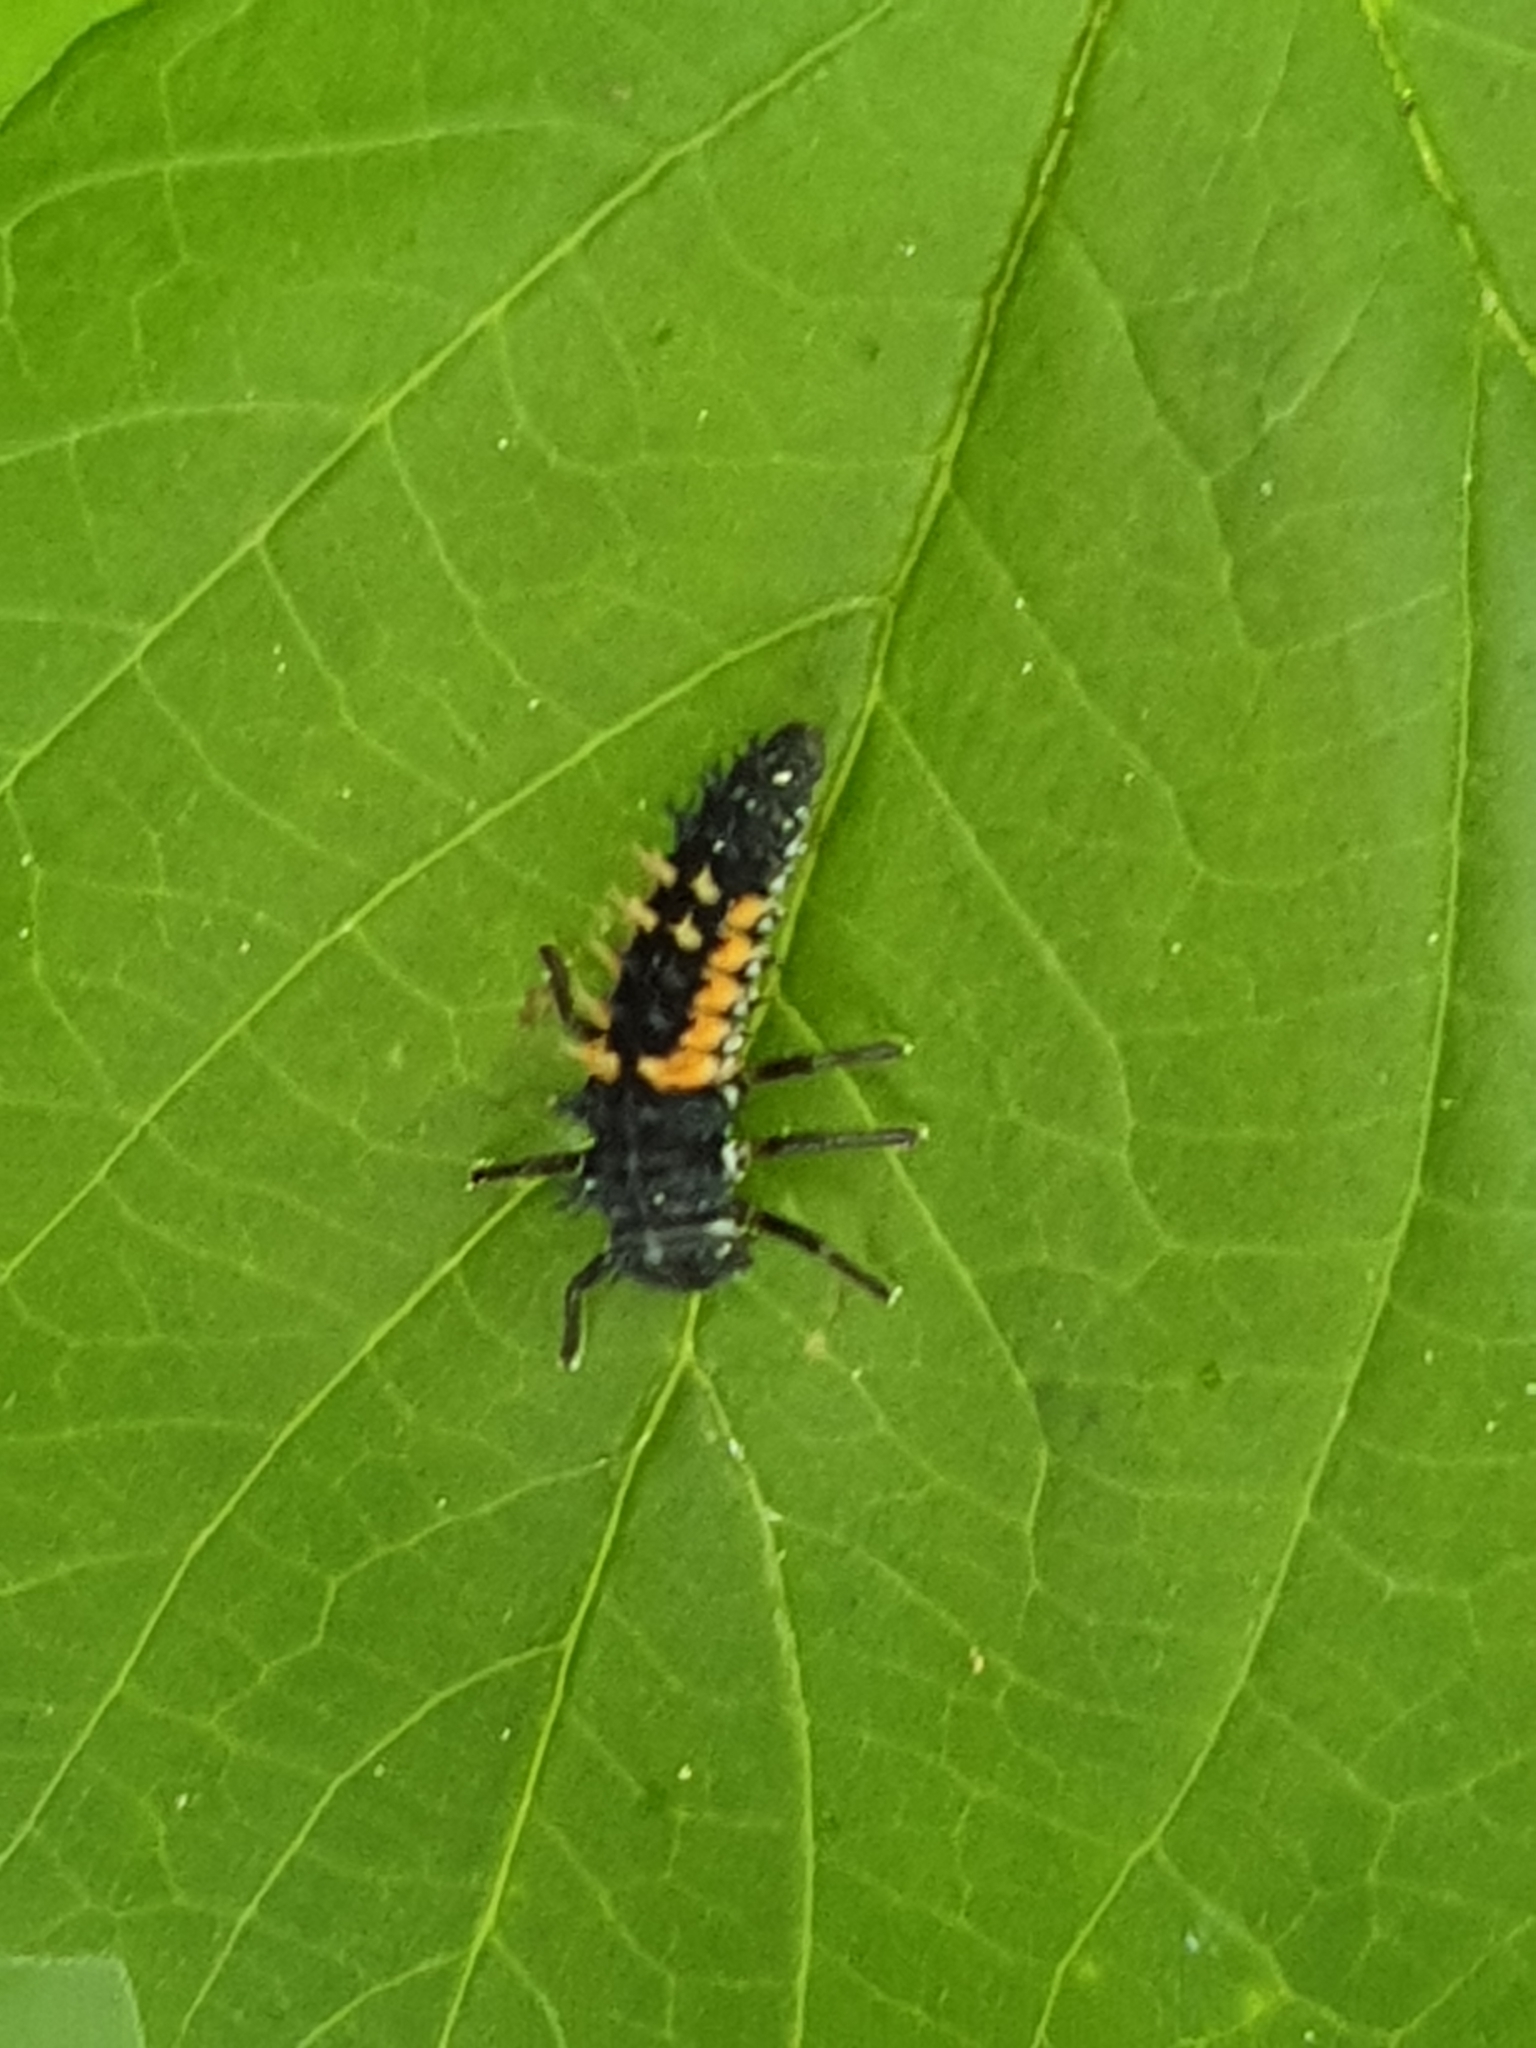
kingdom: Animalia
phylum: Arthropoda
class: Insecta
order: Coleoptera
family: Coccinellidae
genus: Harmonia
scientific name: Harmonia axyridis
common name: Harlequin ladybird
